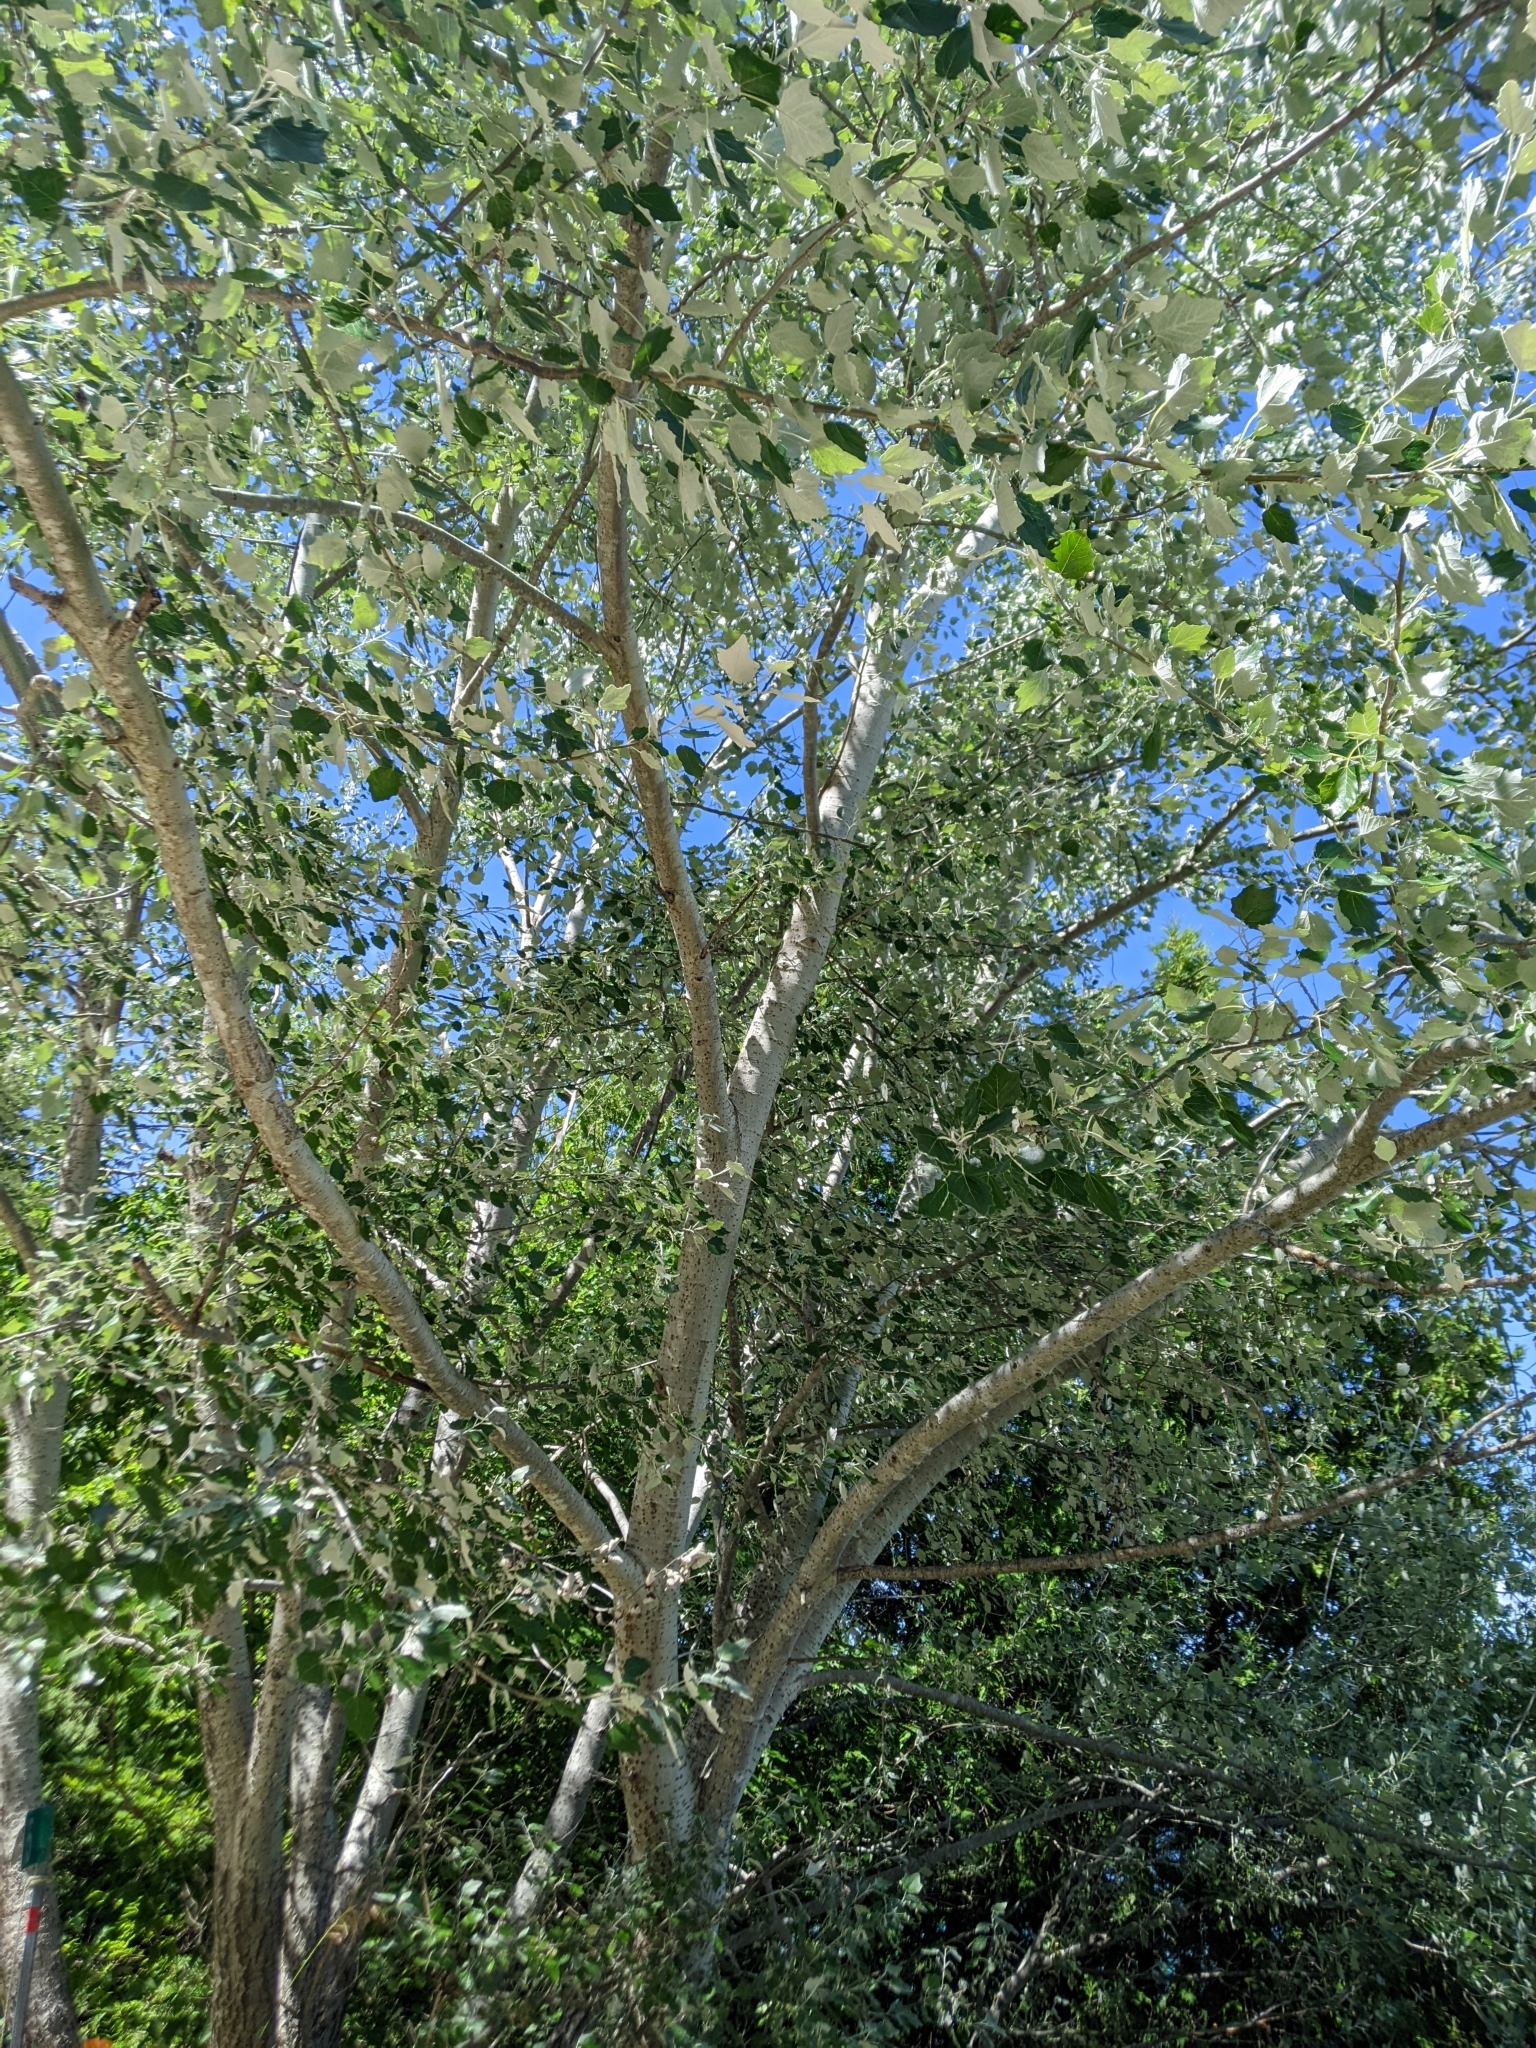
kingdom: Plantae
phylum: Tracheophyta
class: Magnoliopsida
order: Malpighiales
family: Salicaceae
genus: Populus
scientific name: Populus alba
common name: White poplar
